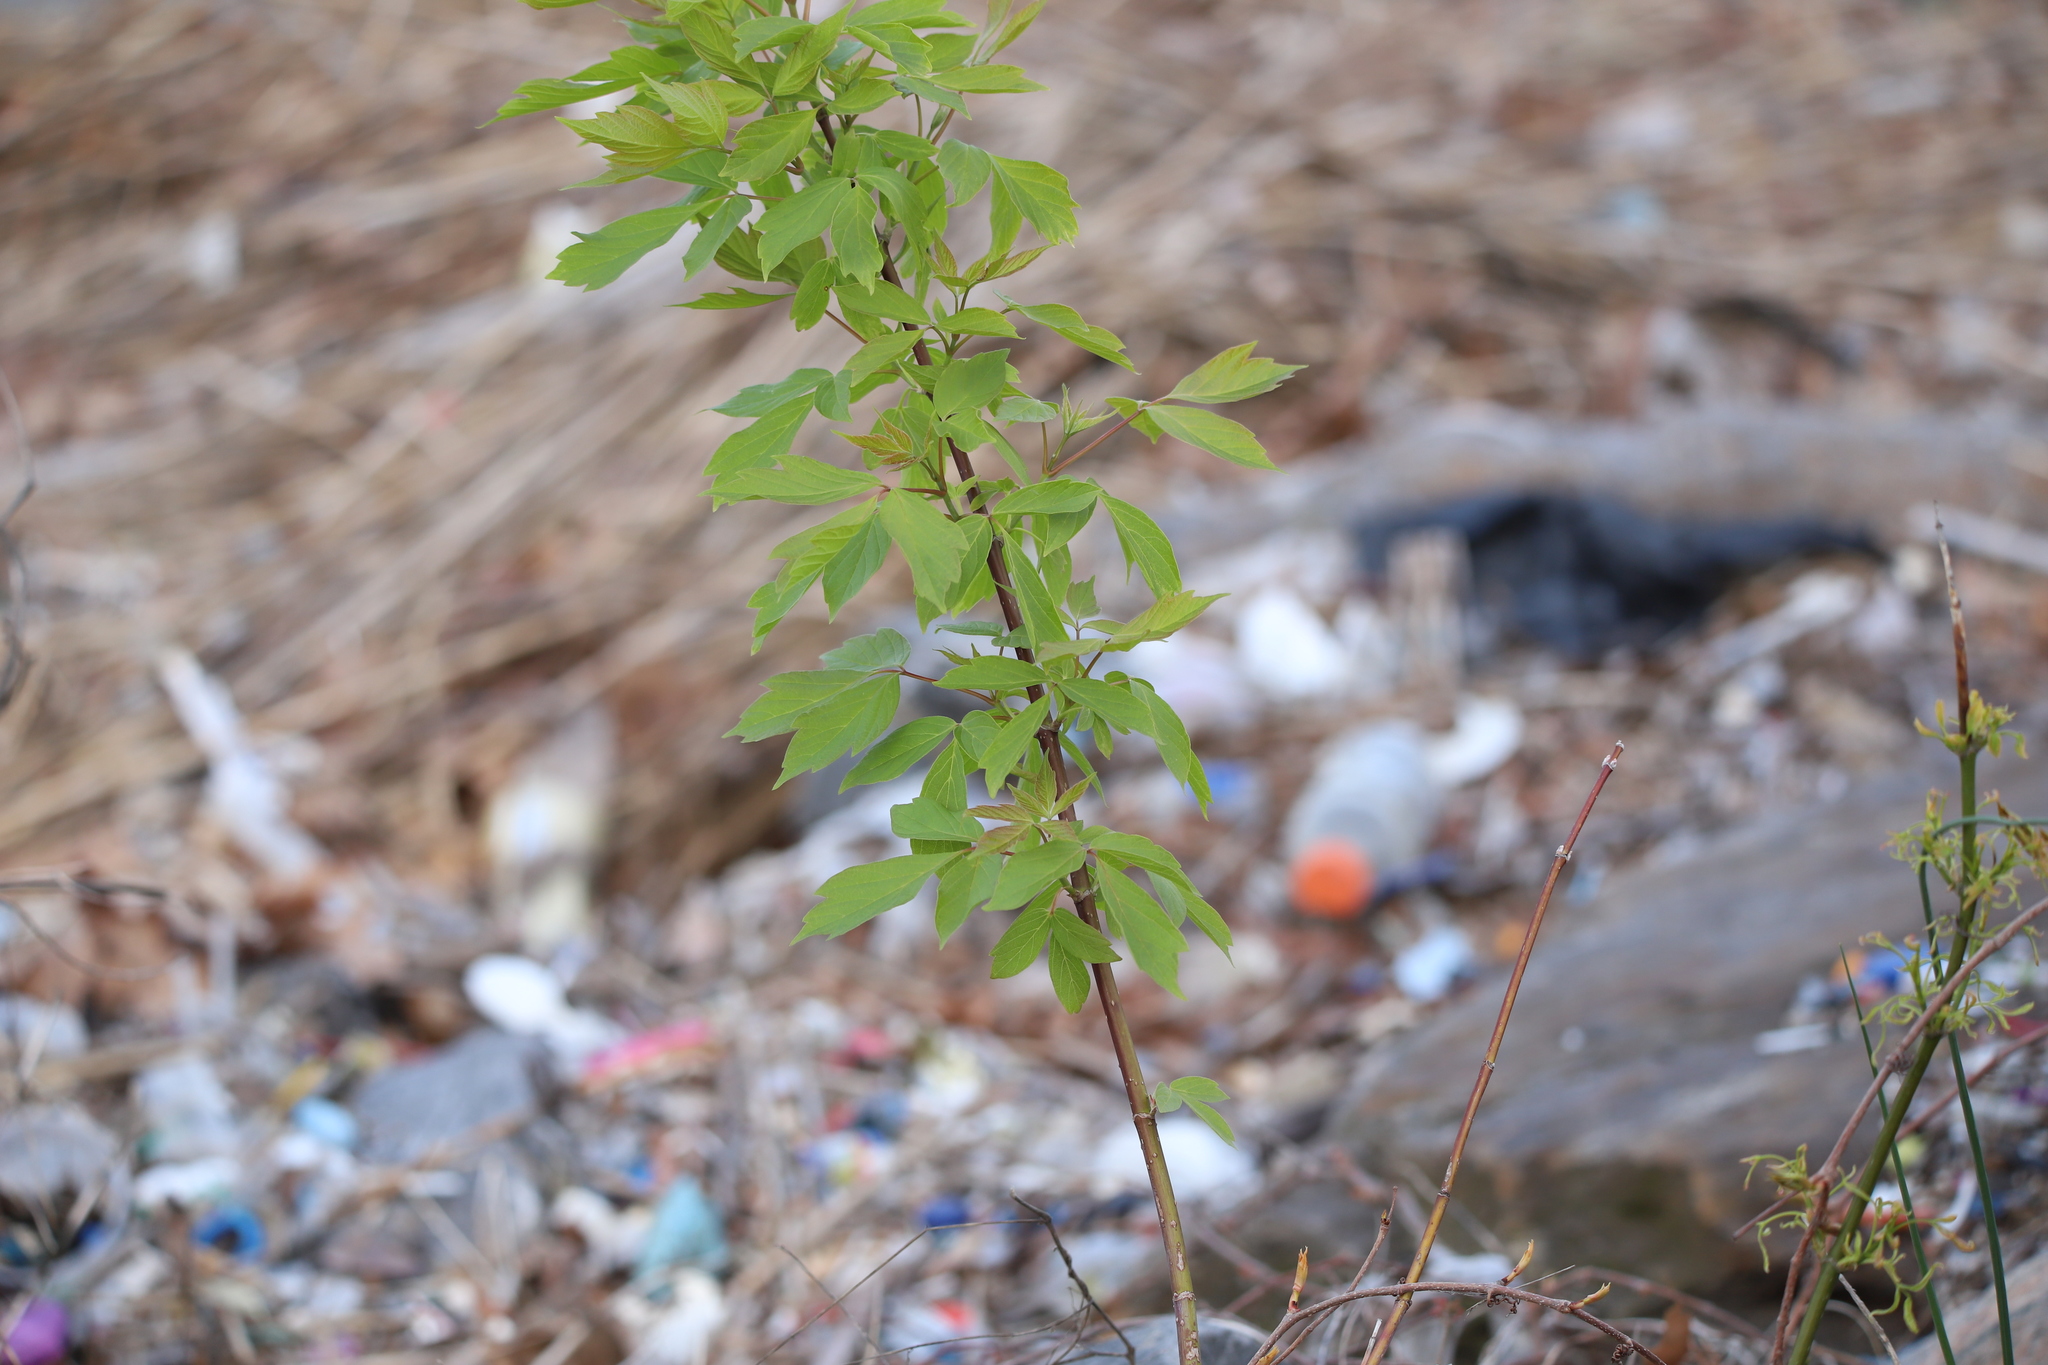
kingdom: Plantae
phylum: Tracheophyta
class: Magnoliopsida
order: Sapindales
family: Sapindaceae
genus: Acer
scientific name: Acer negundo
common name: Ashleaf maple
